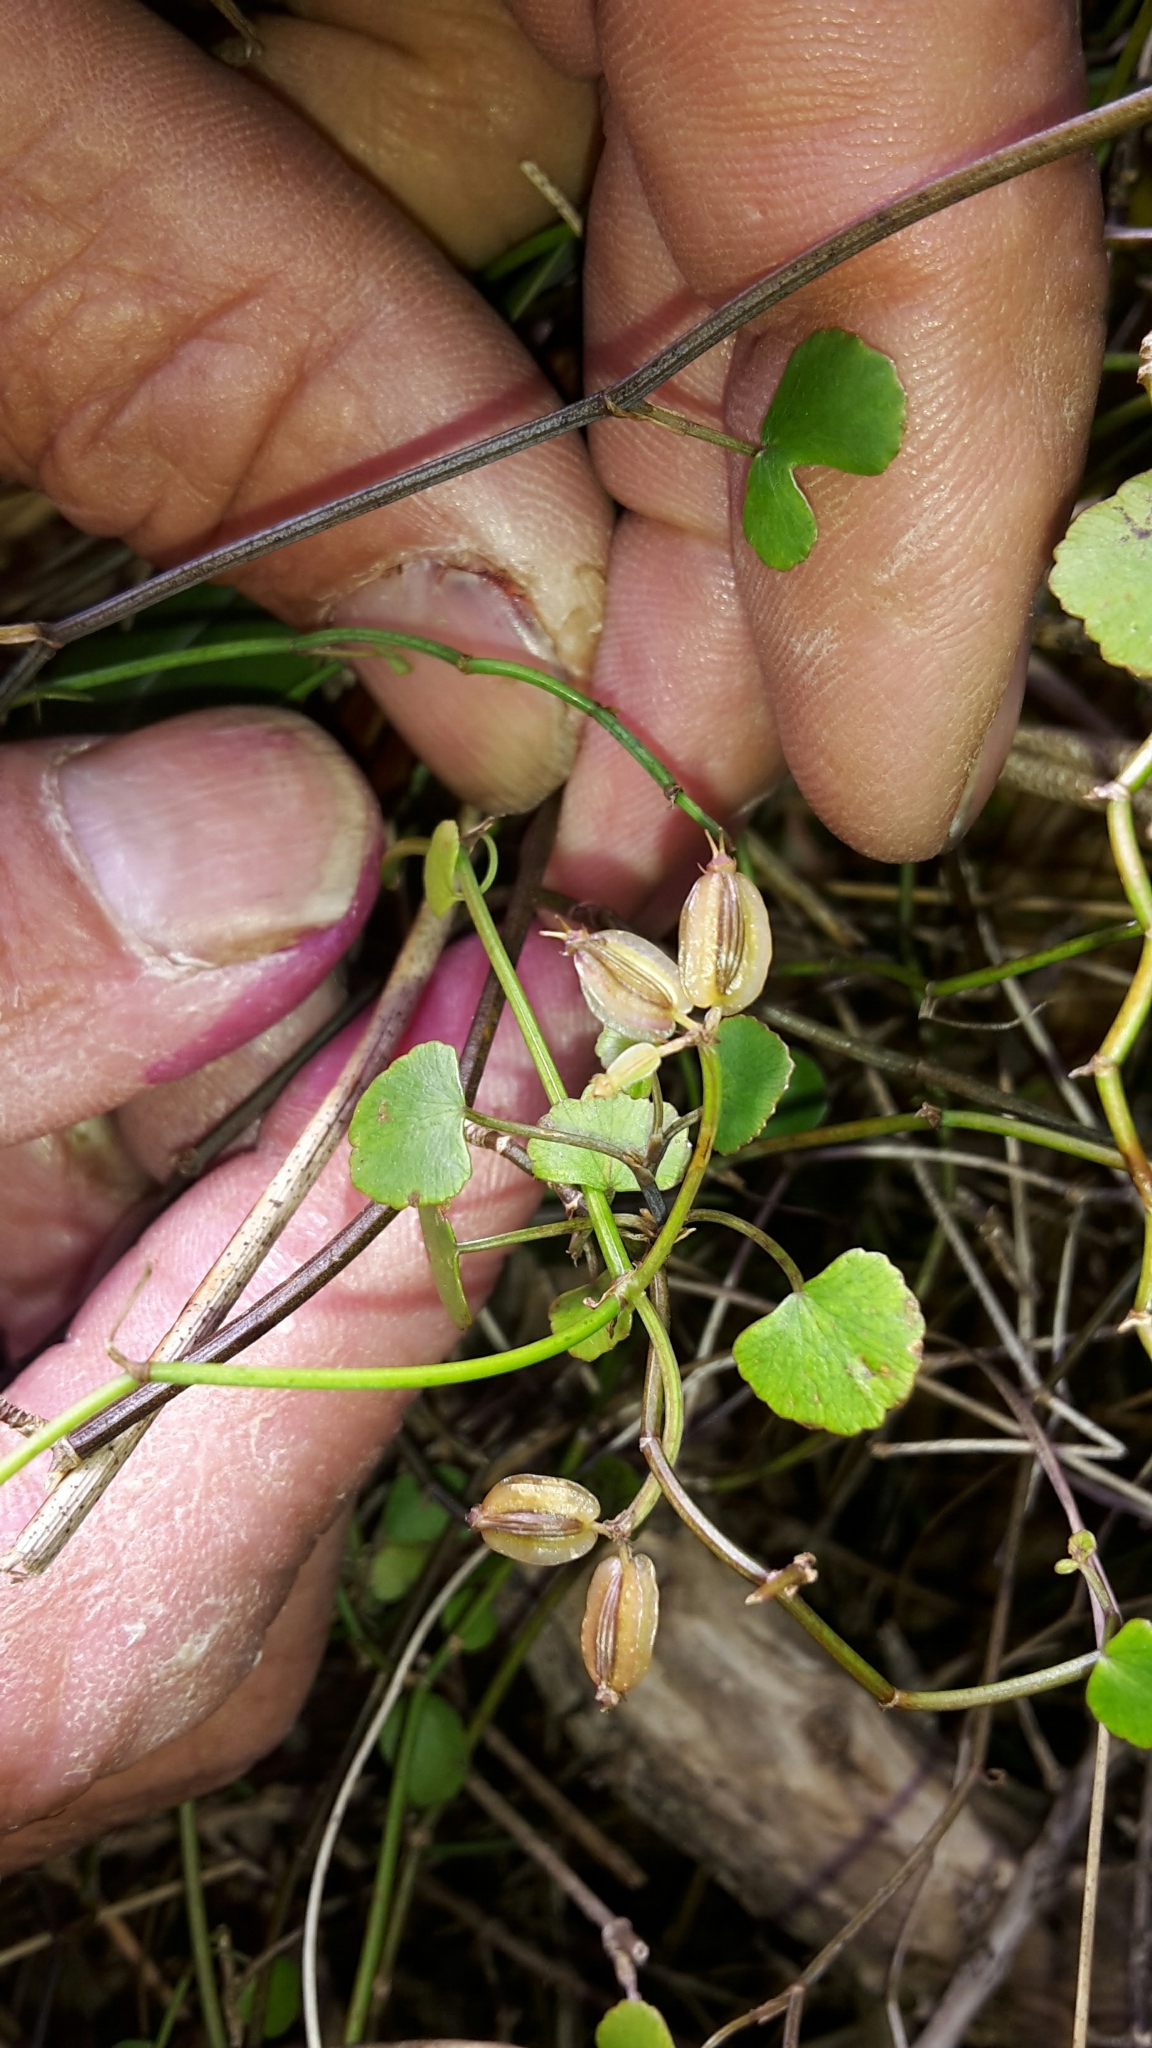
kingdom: Plantae
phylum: Tracheophyta
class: Magnoliopsida
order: Apiales
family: Apiaceae
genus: Scandia
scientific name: Scandia geniculata
